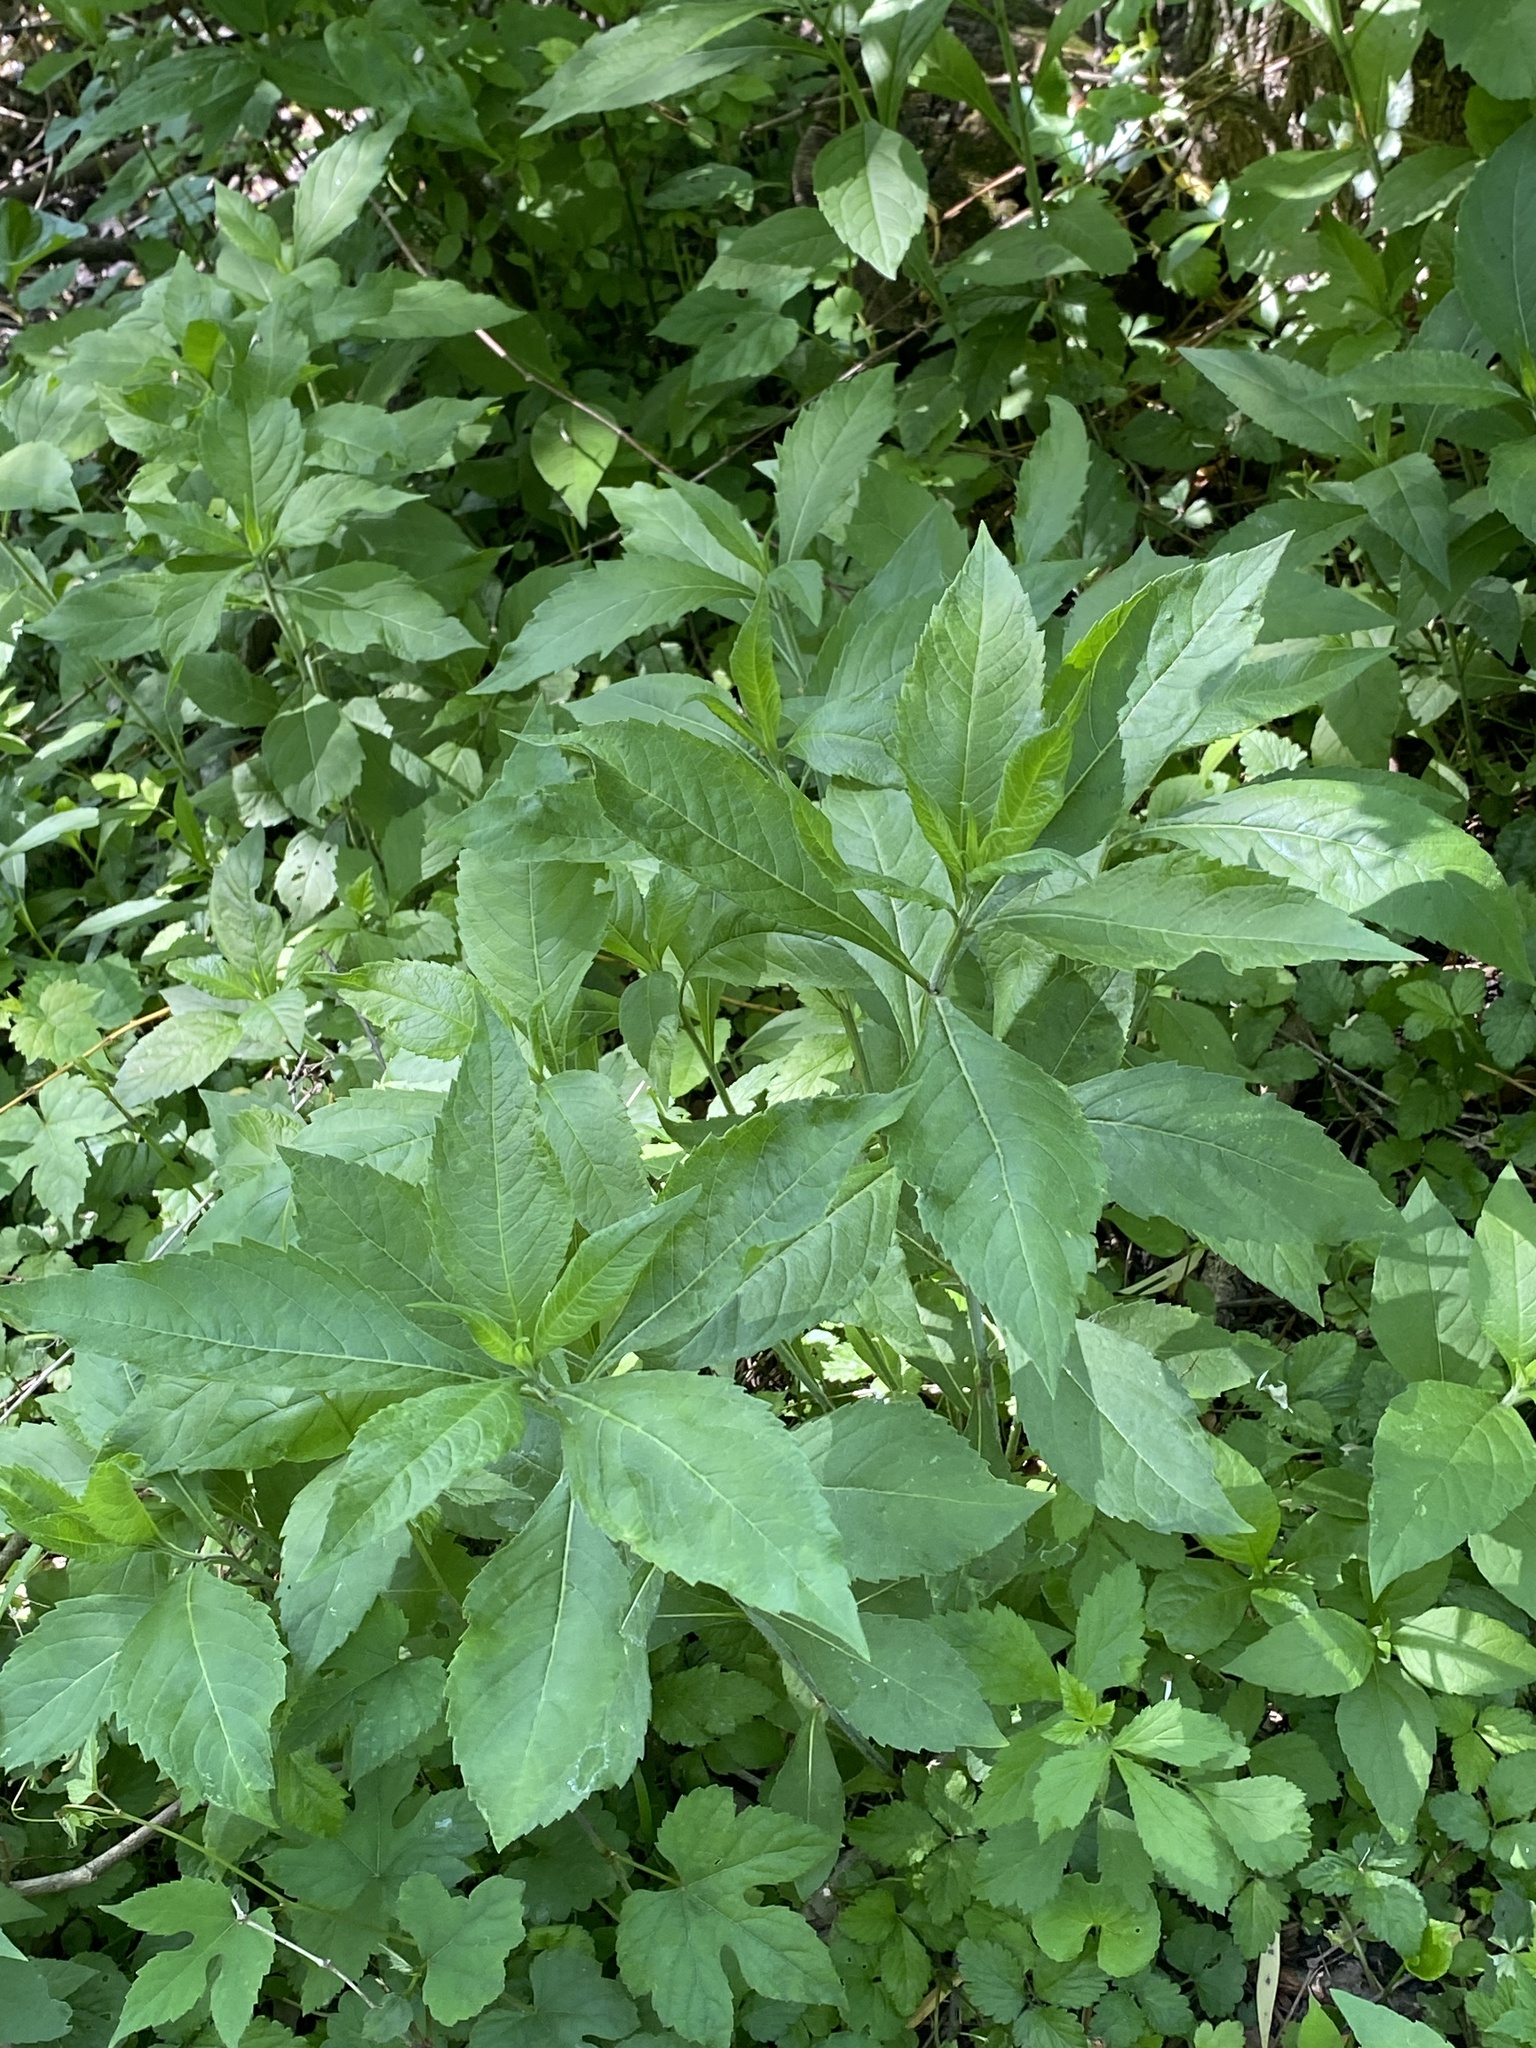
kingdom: Plantae
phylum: Tracheophyta
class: Magnoliopsida
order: Asterales
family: Asteraceae
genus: Verbesina
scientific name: Verbesina alternifolia
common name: Wingstem
